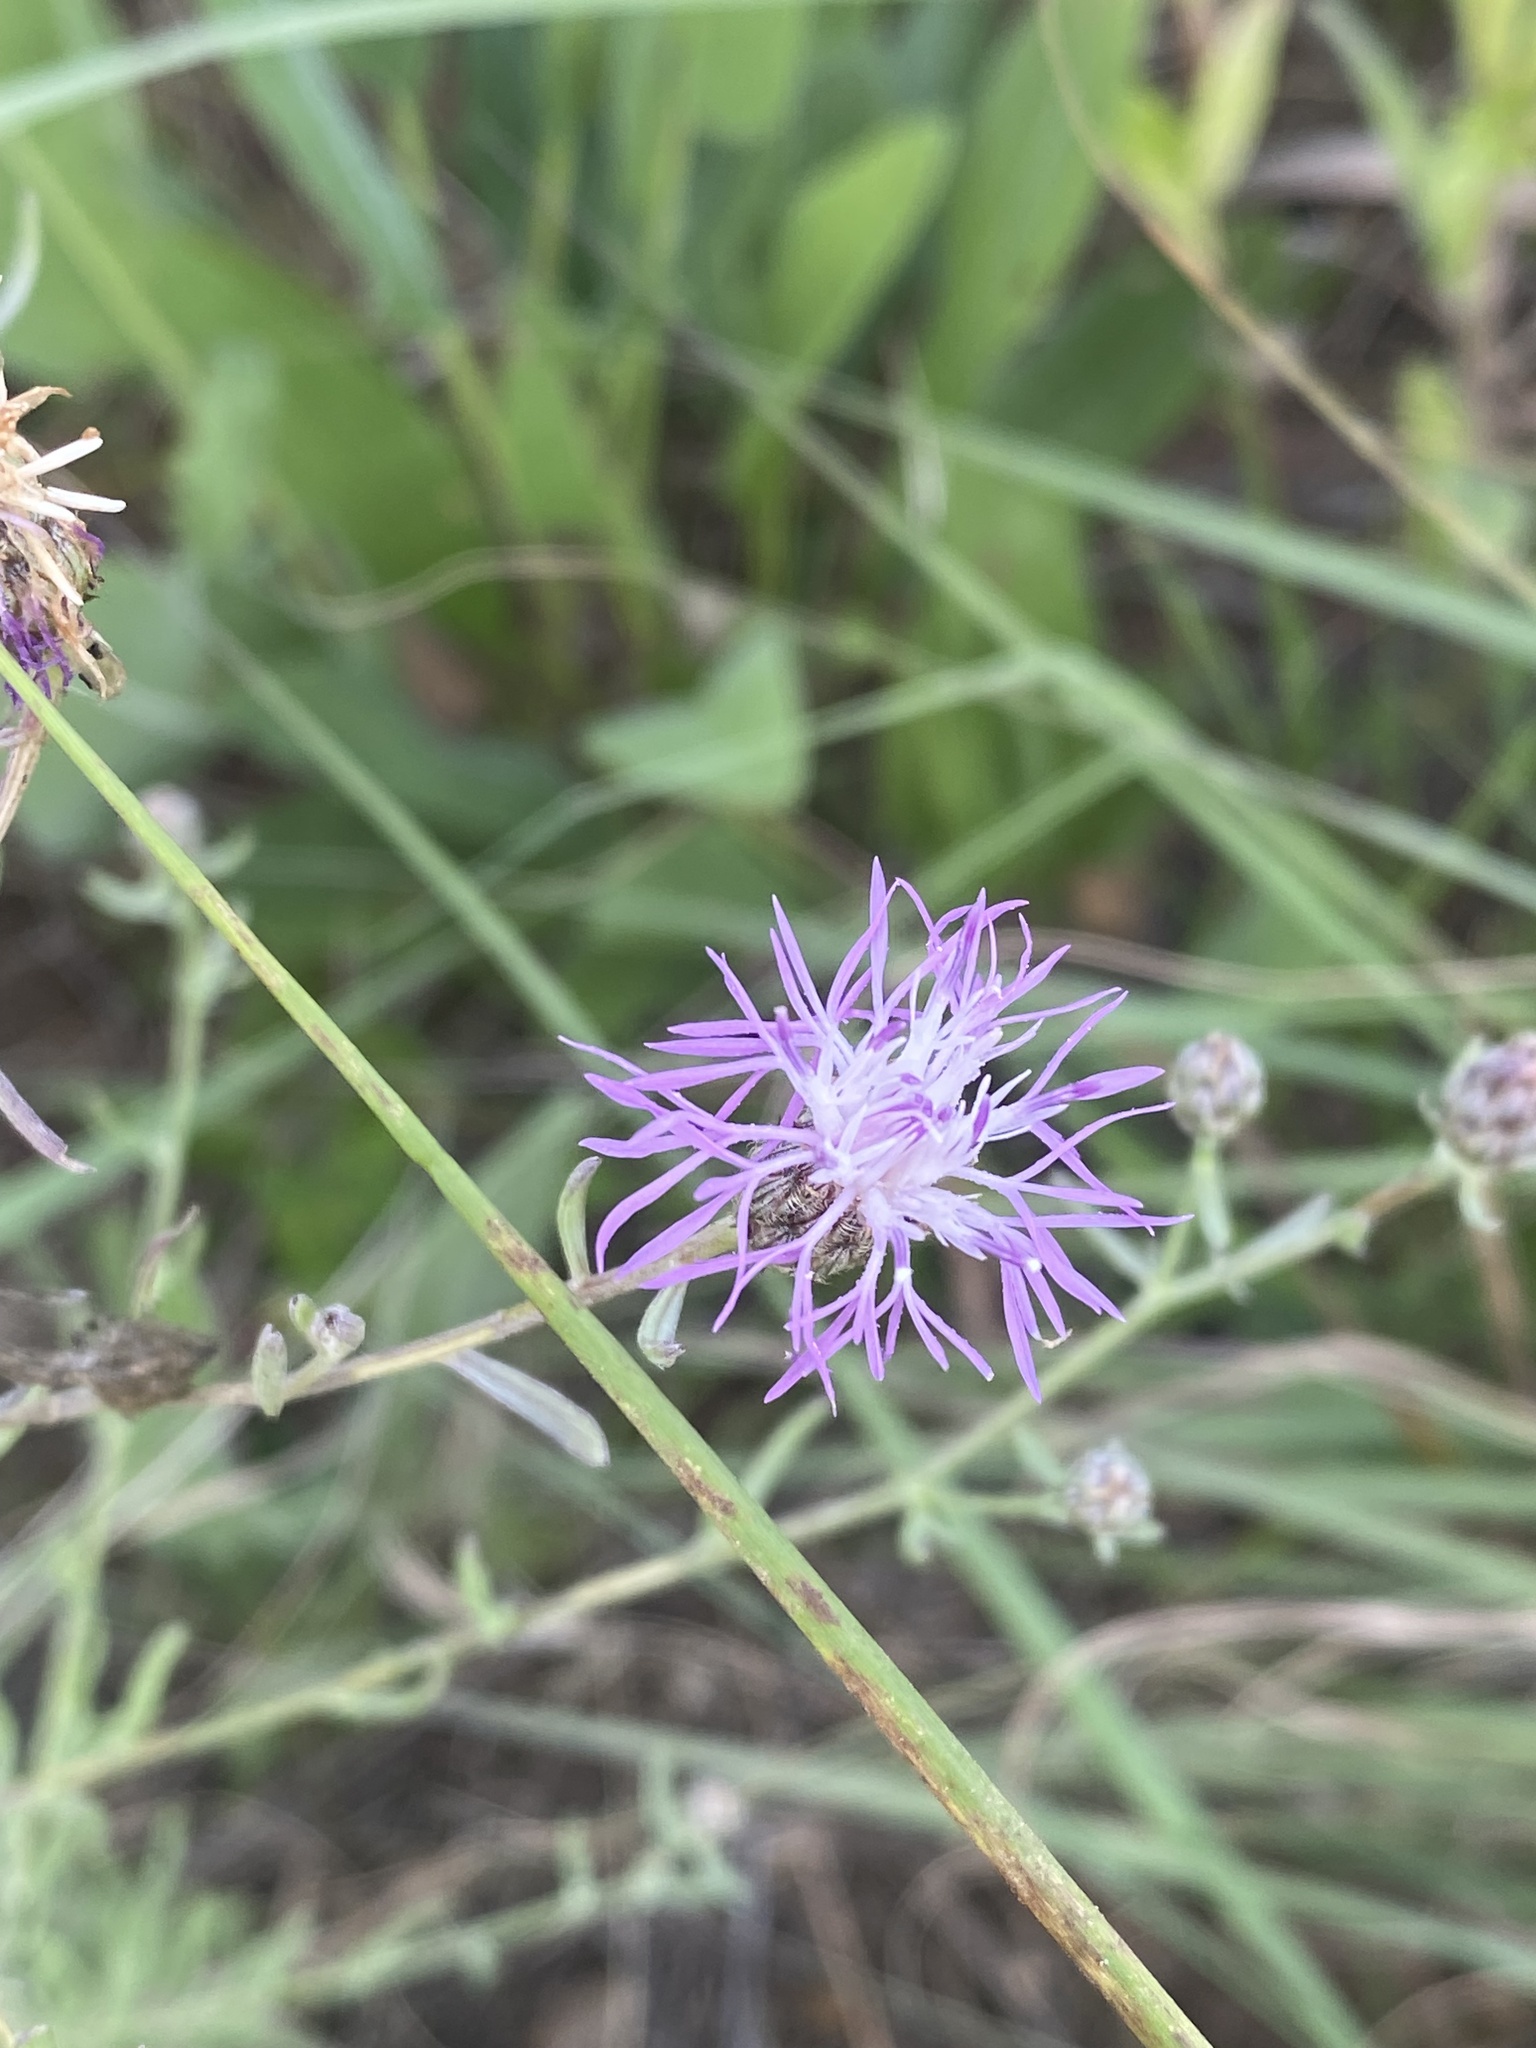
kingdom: Plantae
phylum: Tracheophyta
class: Magnoliopsida
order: Asterales
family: Asteraceae
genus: Centaurea
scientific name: Centaurea stoebe
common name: Spotted knapweed
